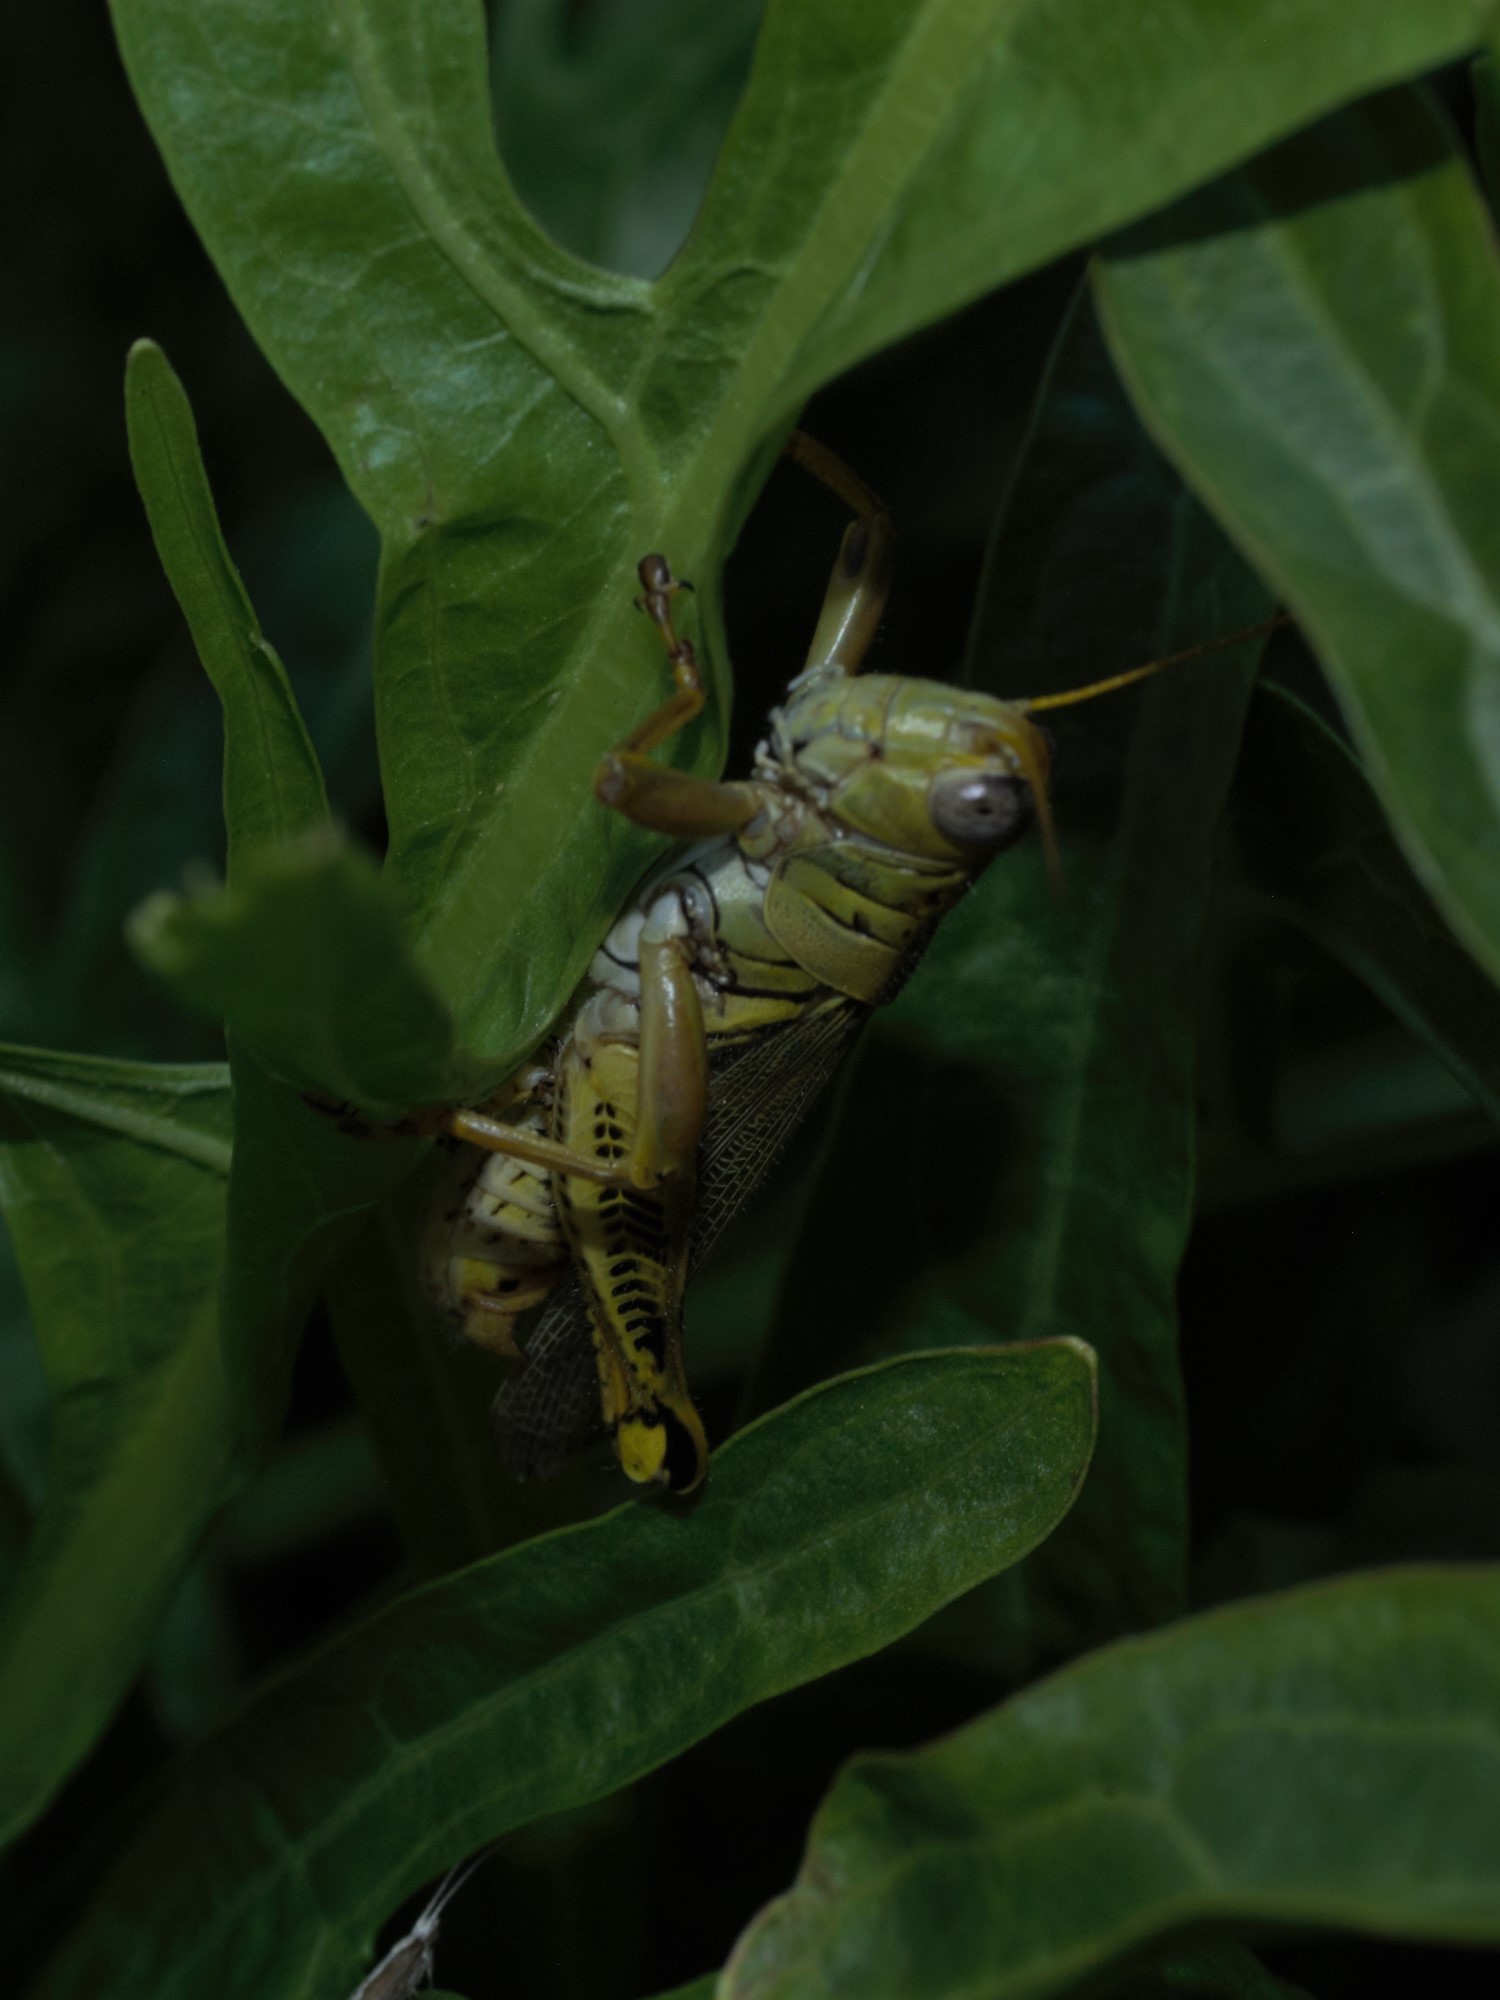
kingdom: Animalia
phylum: Arthropoda
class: Insecta
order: Orthoptera
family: Acrididae
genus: Melanoplus
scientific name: Melanoplus differentialis
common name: Differential grasshopper
